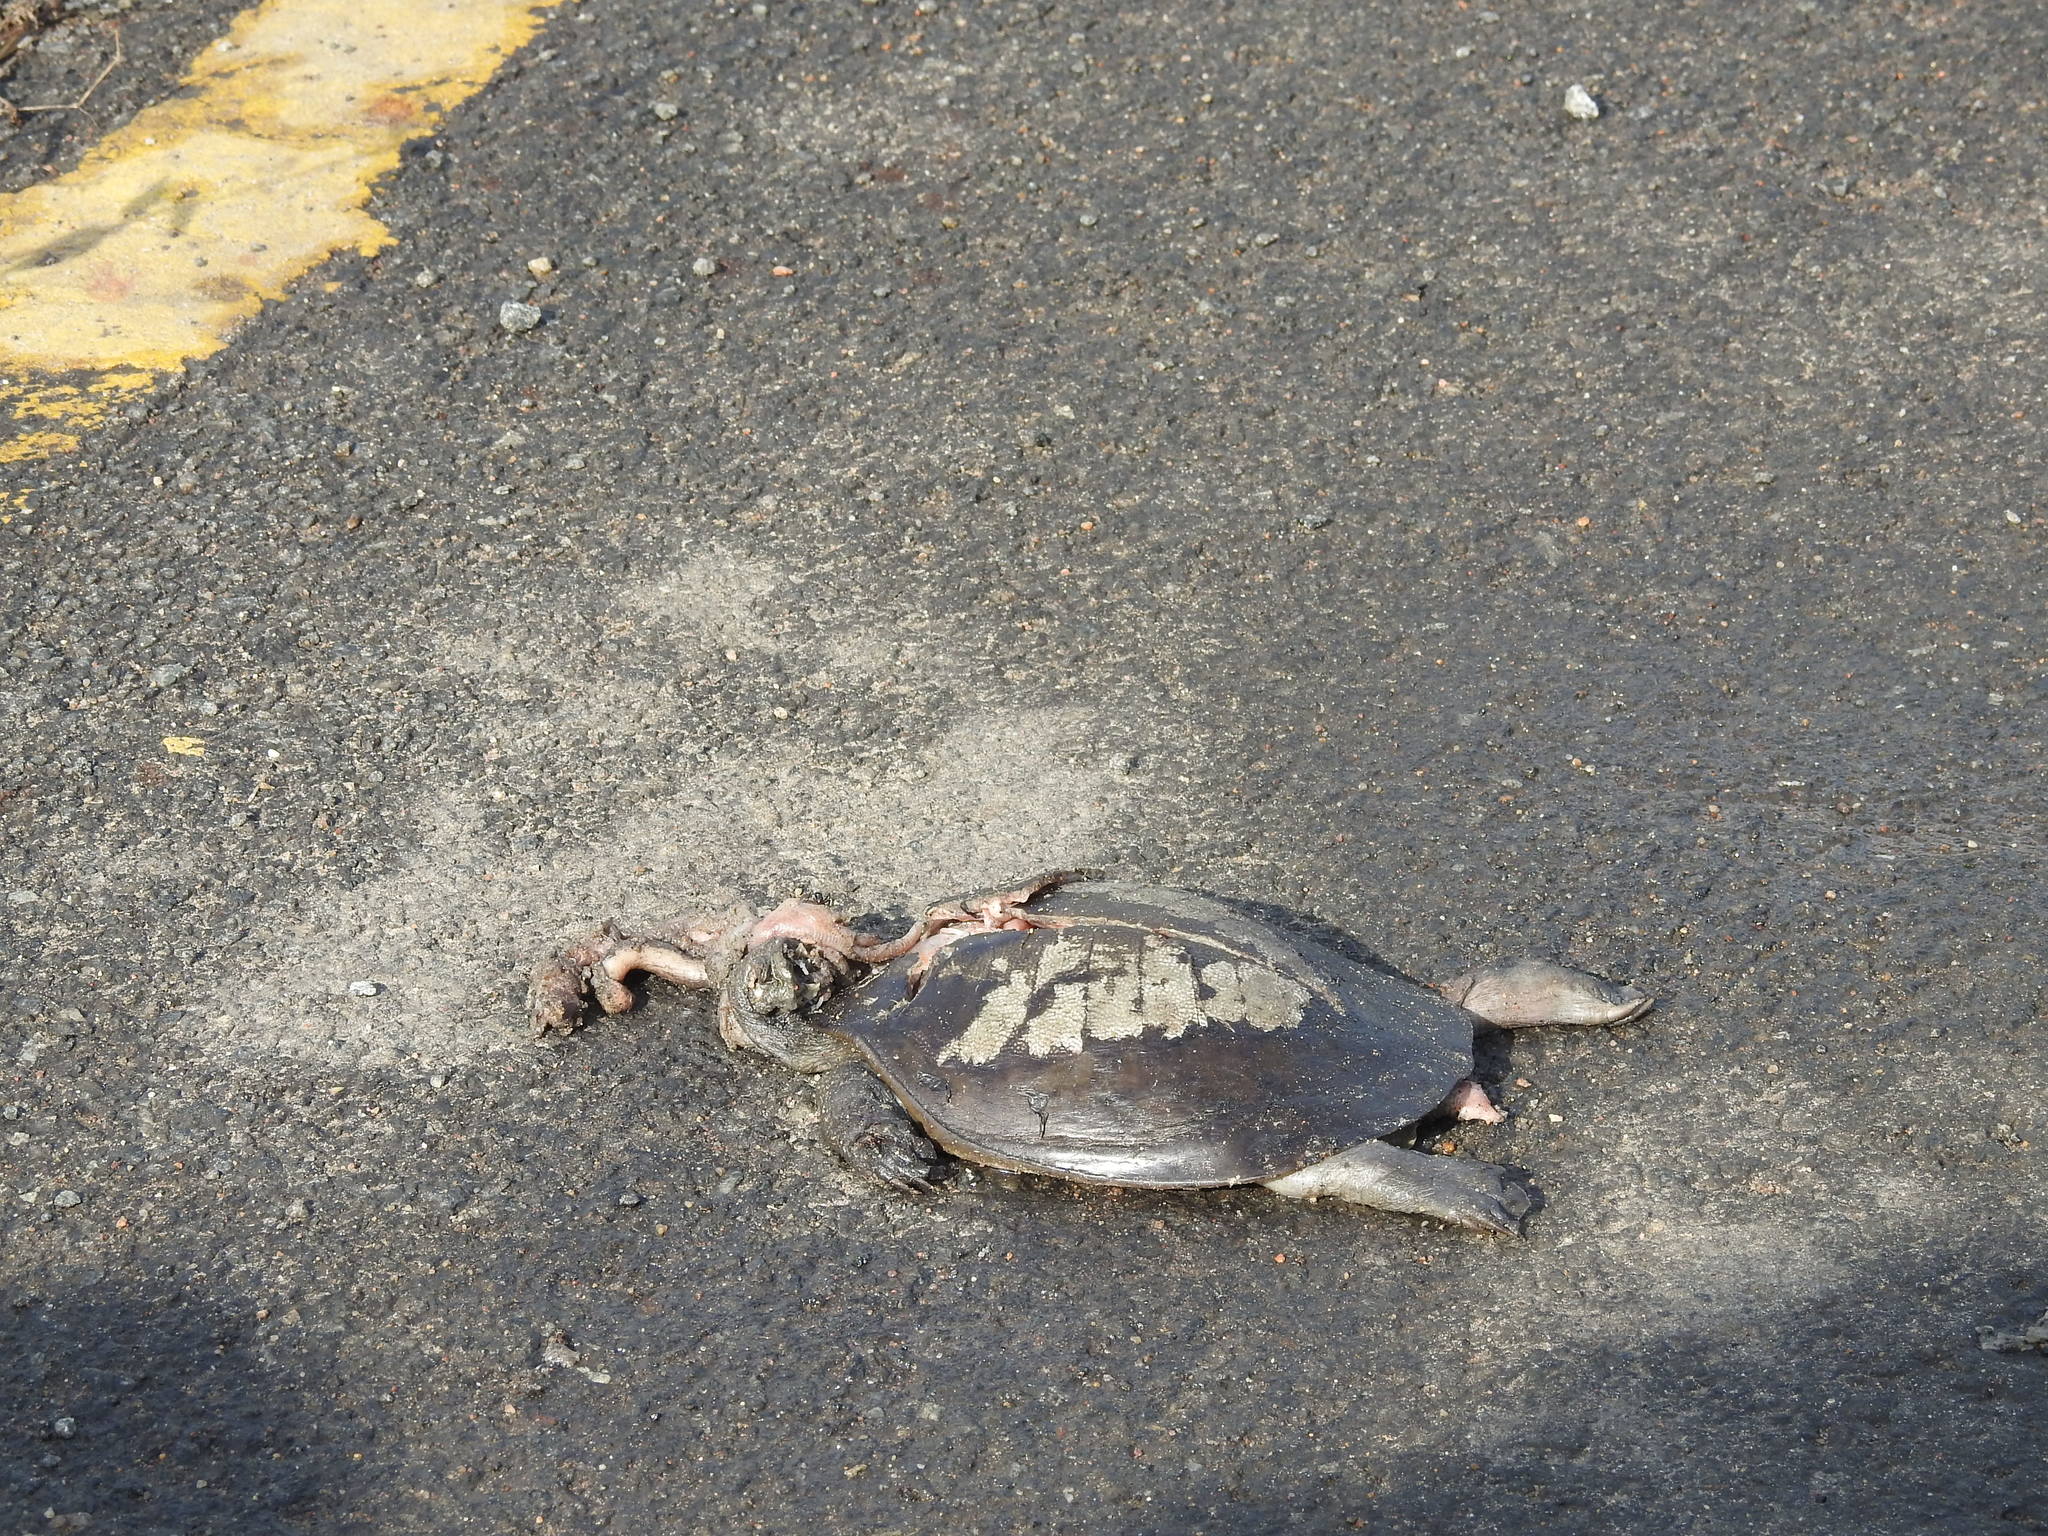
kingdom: Animalia
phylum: Chordata
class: Testudines
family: Trionychidae
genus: Lissemys
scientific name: Lissemys punctata
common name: Indian flap-shelled turtle
